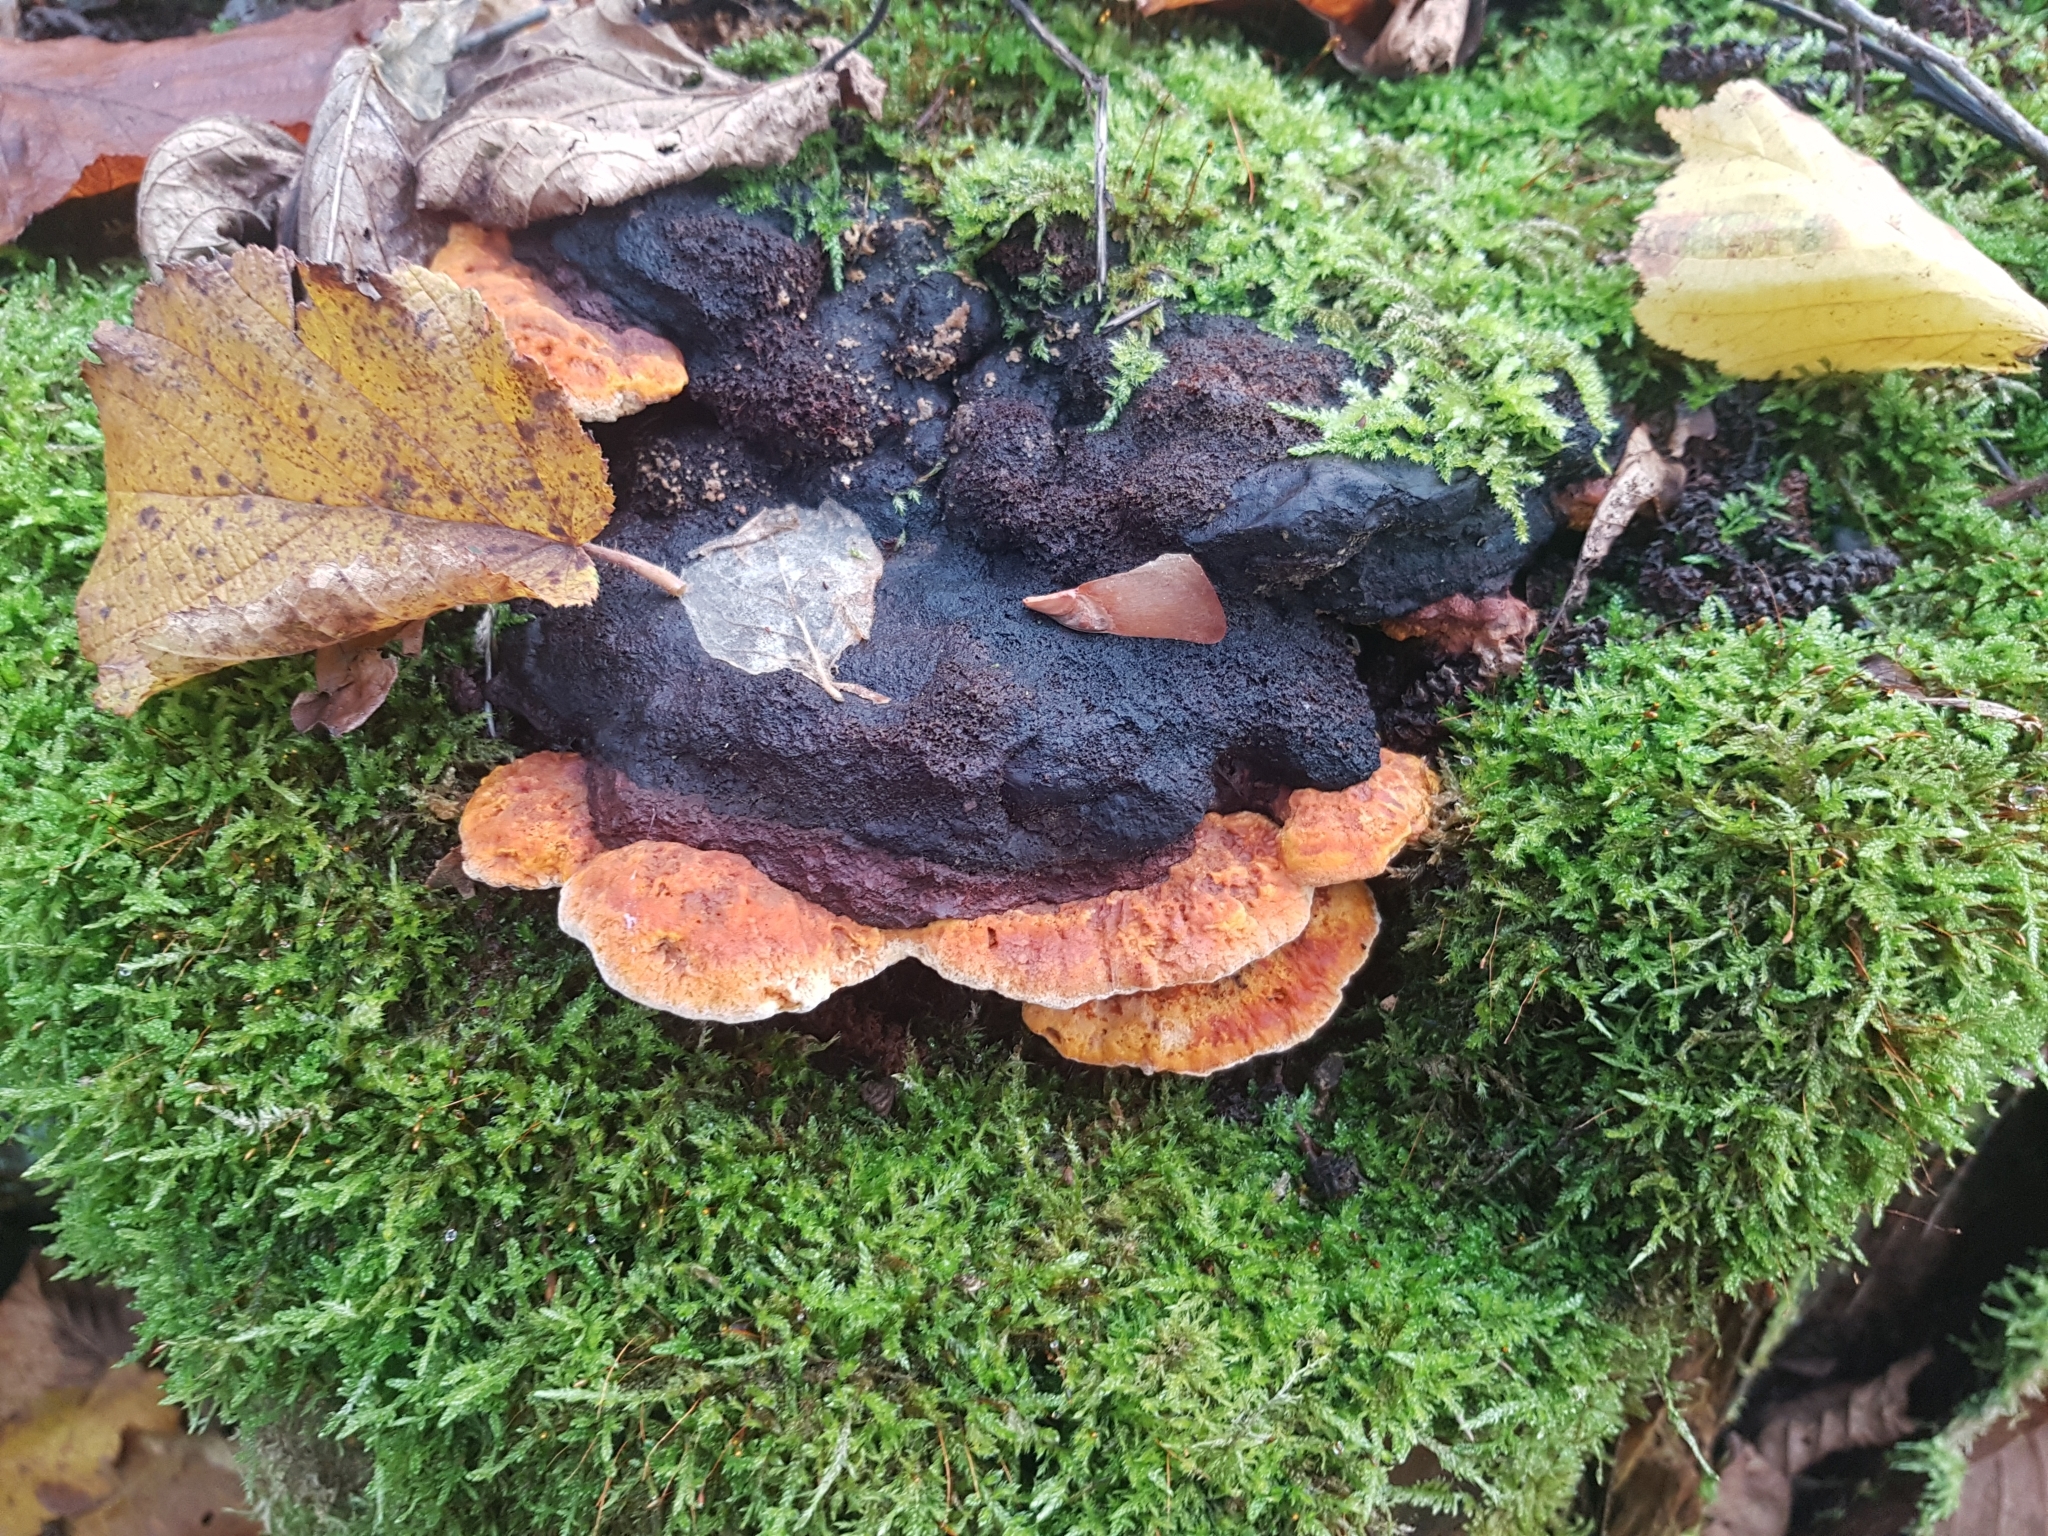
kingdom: Fungi
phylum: Basidiomycota
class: Agaricomycetes
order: Gloeophyllales
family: Gloeophyllaceae
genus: Gloeophyllum
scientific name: Gloeophyllum odoratum
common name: Anise mazegill
